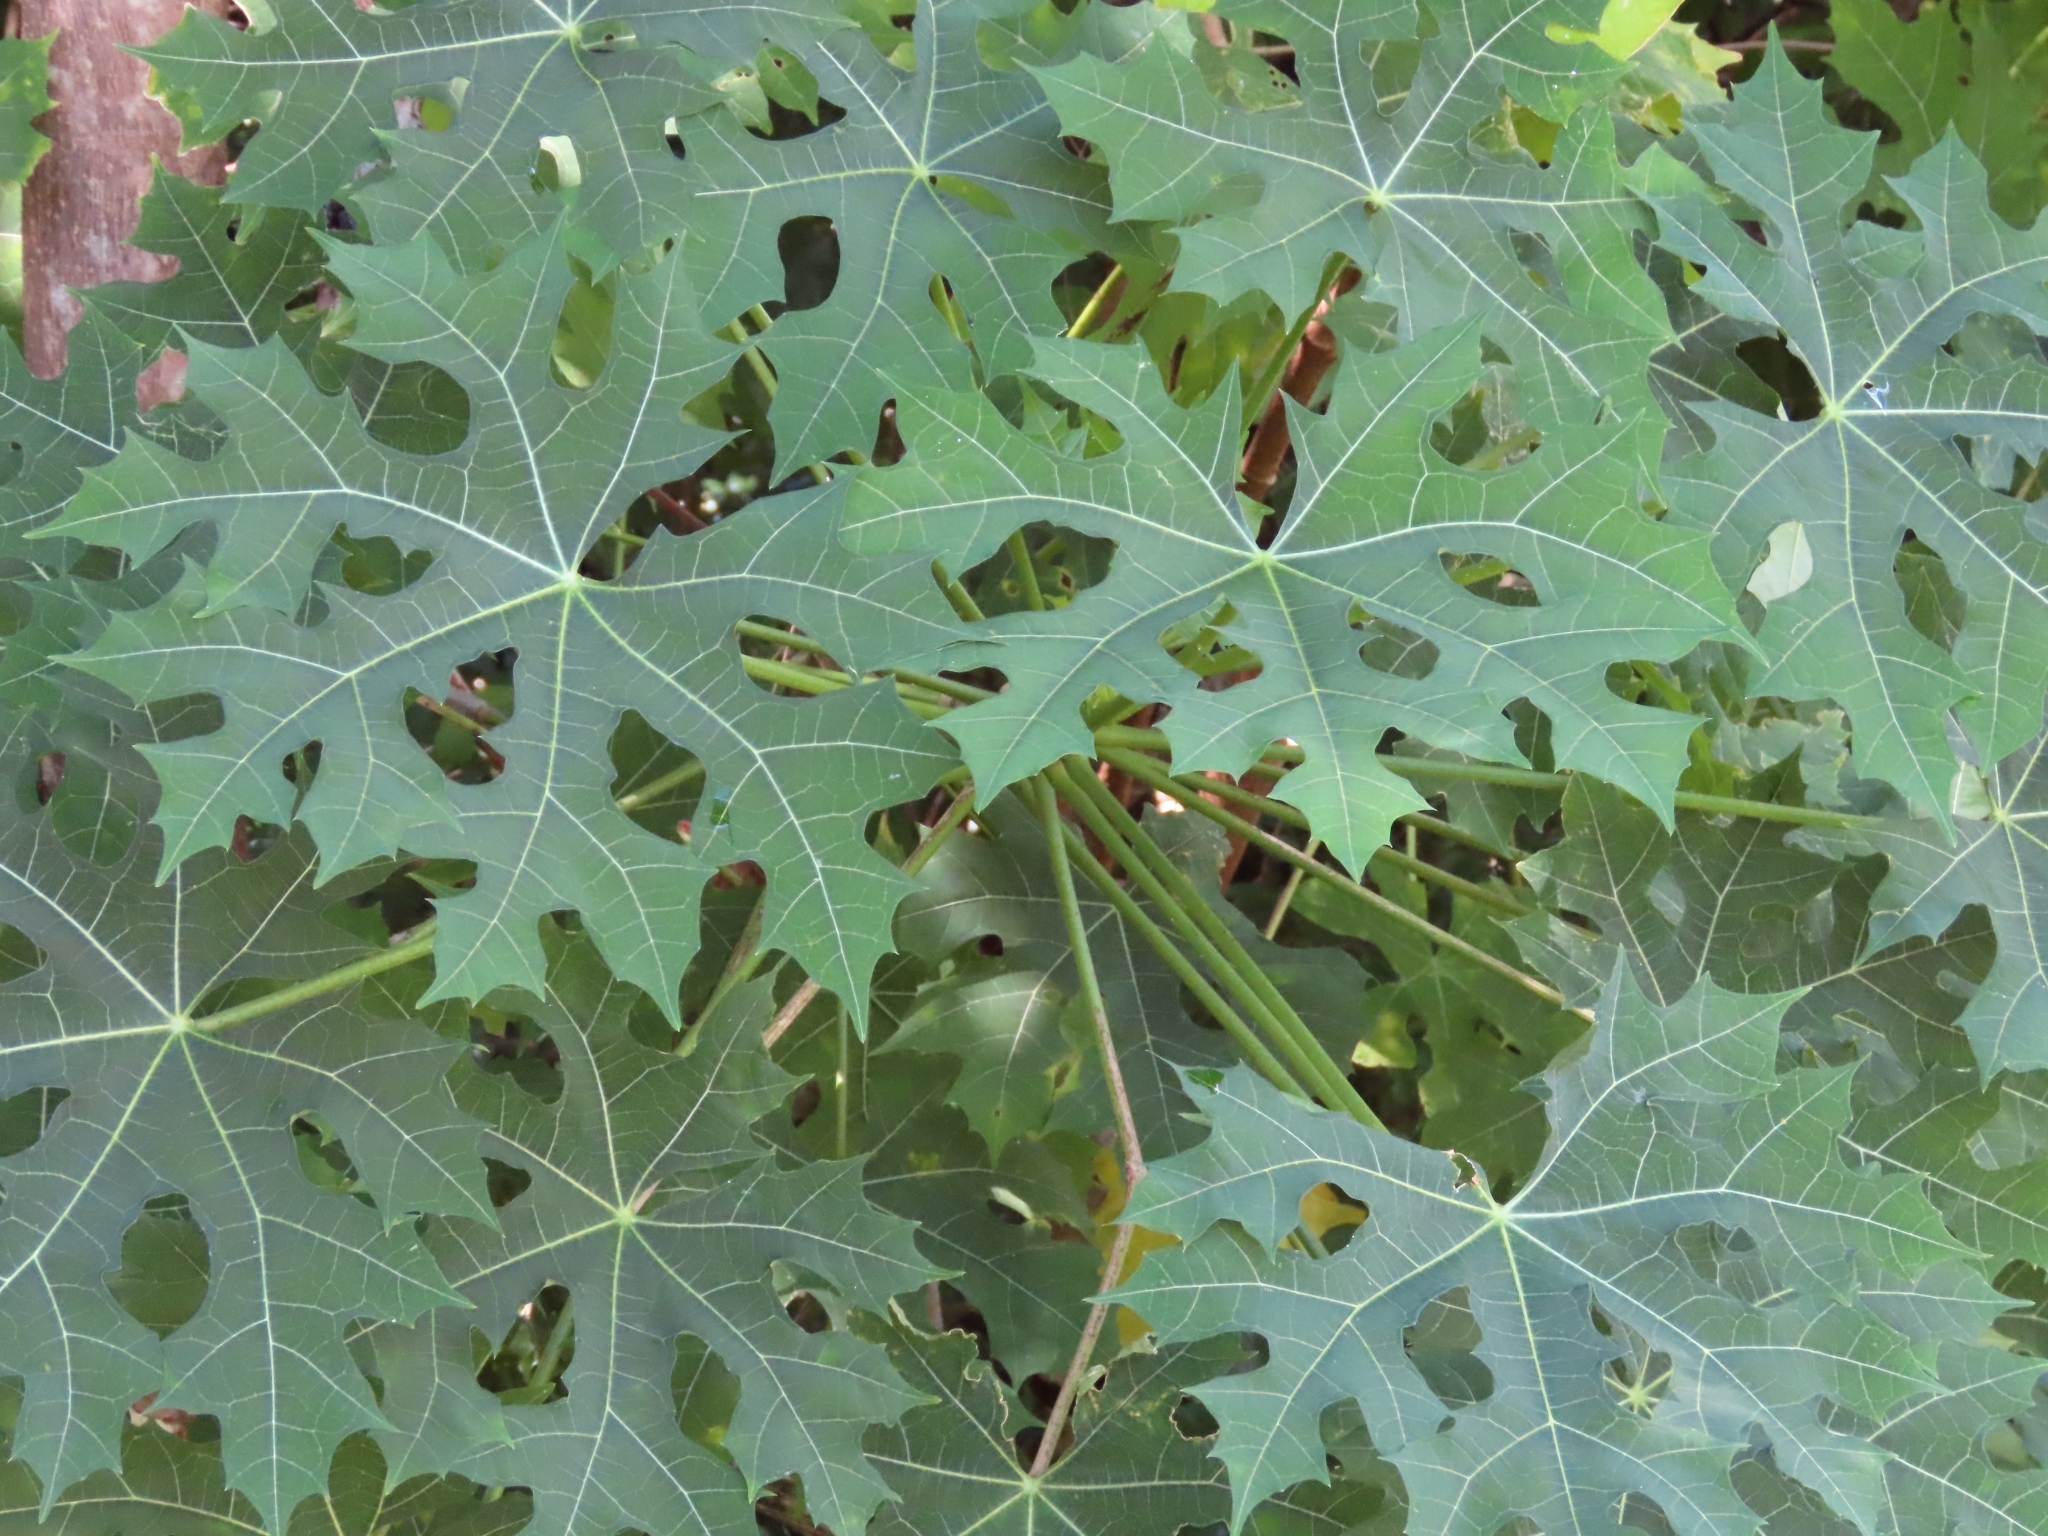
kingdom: Plantae
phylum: Tracheophyta
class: Magnoliopsida
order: Malpighiales
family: Euphorbiaceae
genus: Cnidoscolus
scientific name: Cnidoscolus aconitifolius
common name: Cabbage-star
